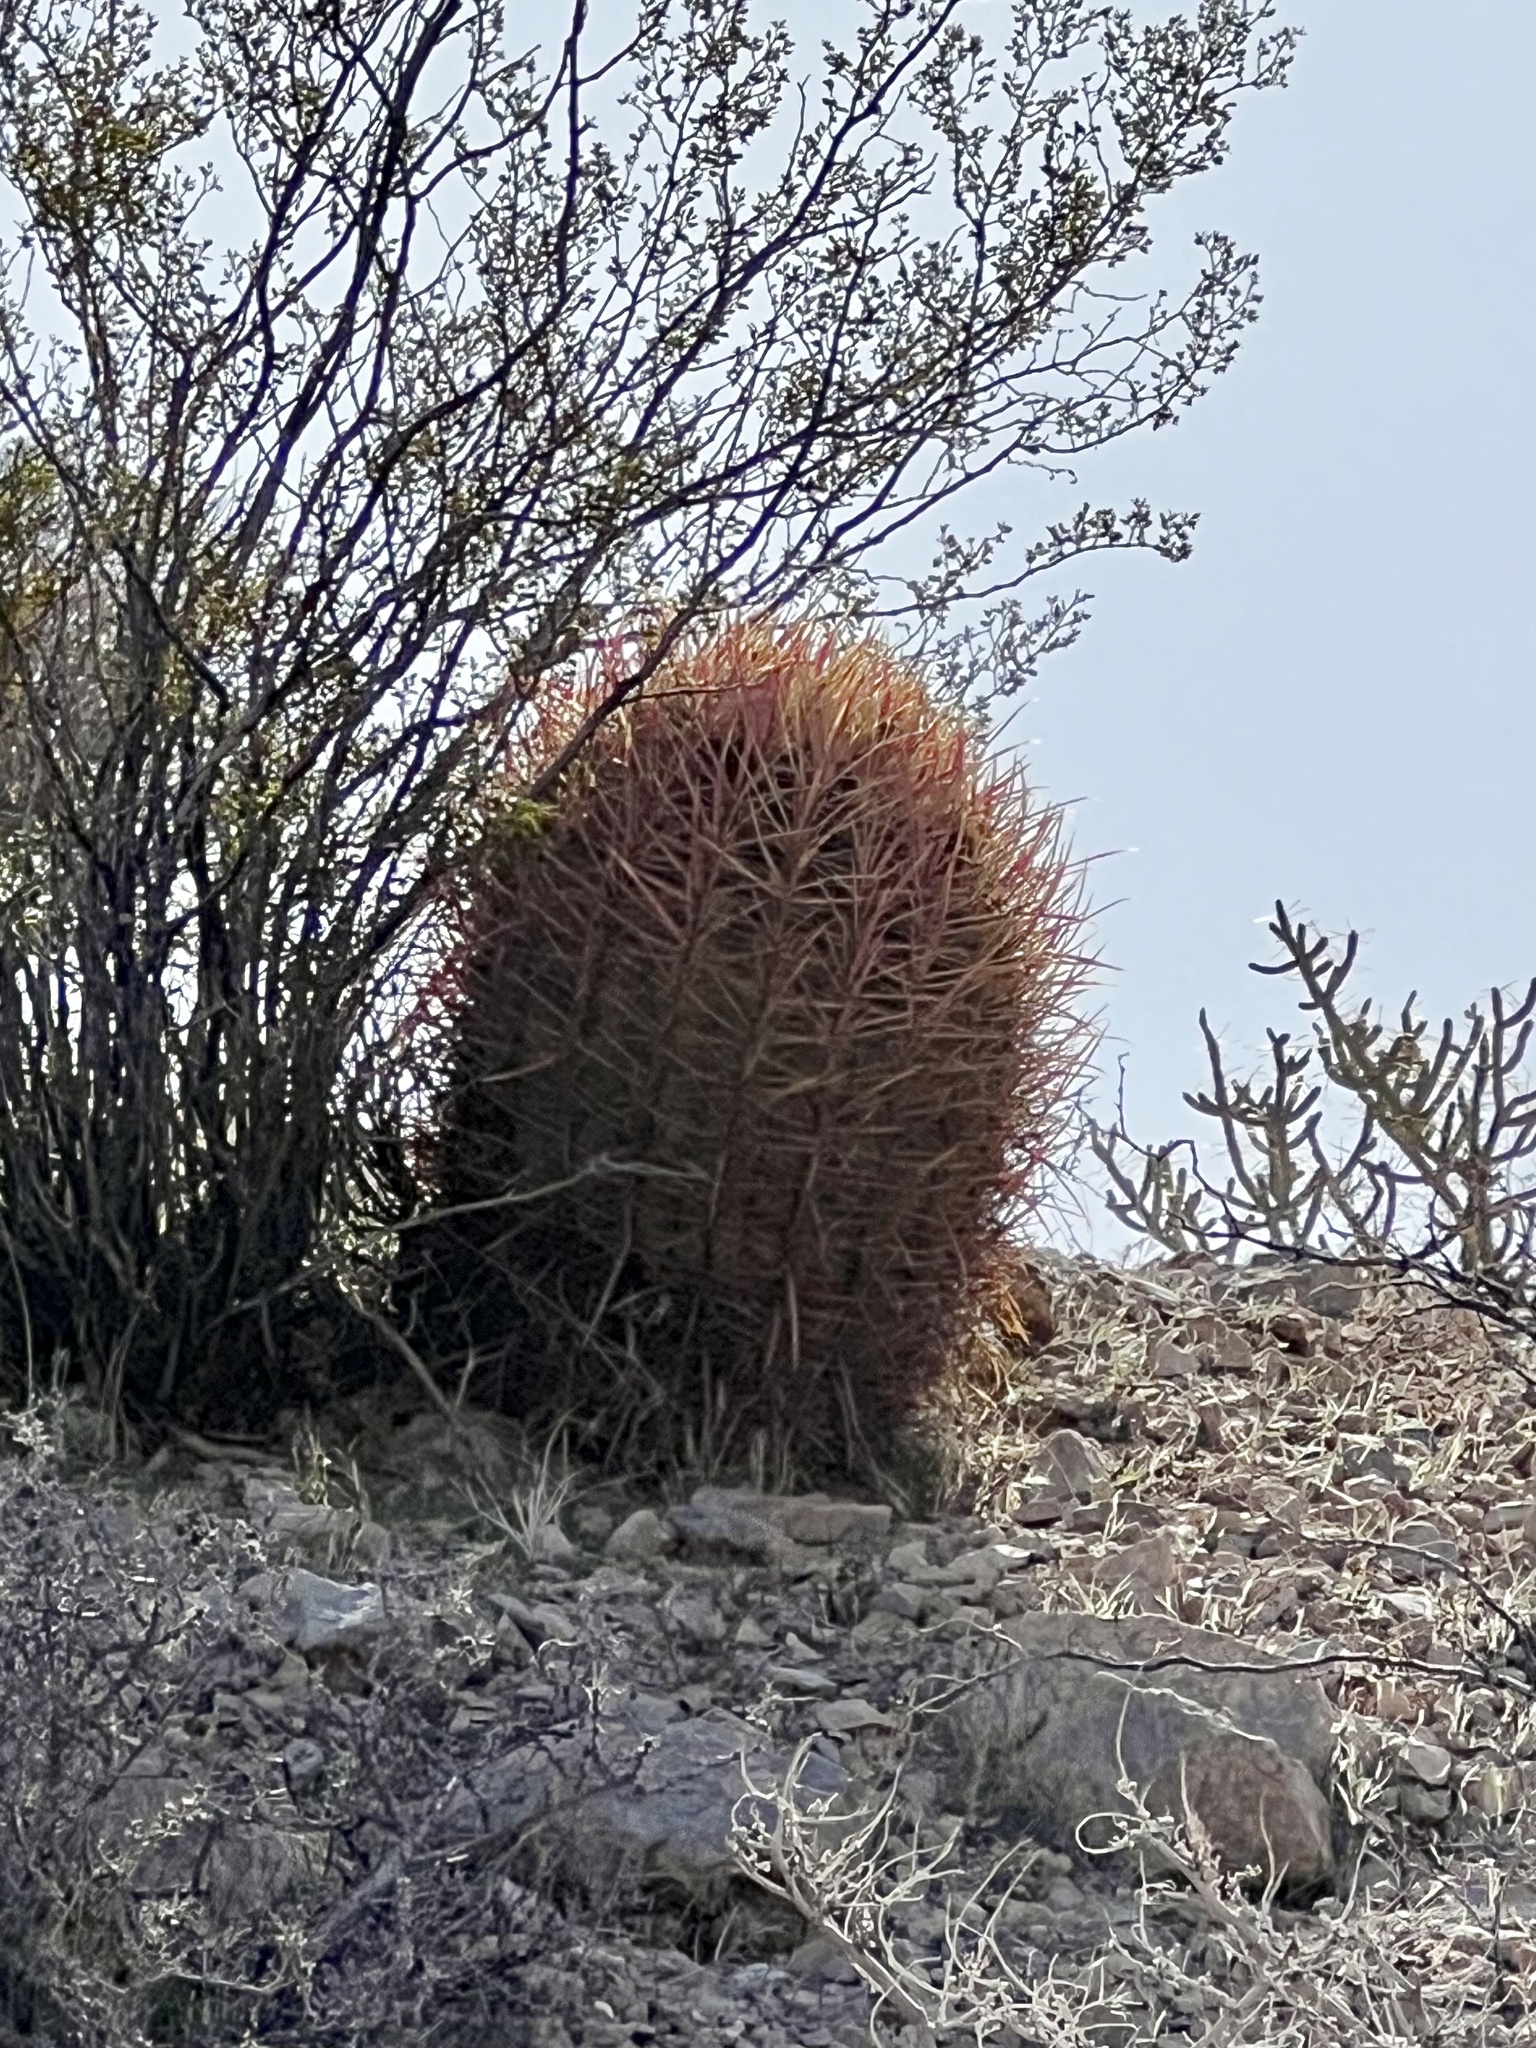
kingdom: Plantae
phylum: Tracheophyta
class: Magnoliopsida
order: Caryophyllales
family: Cactaceae
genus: Ferocactus
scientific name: Ferocactus cylindraceus
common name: California barrel cactus
